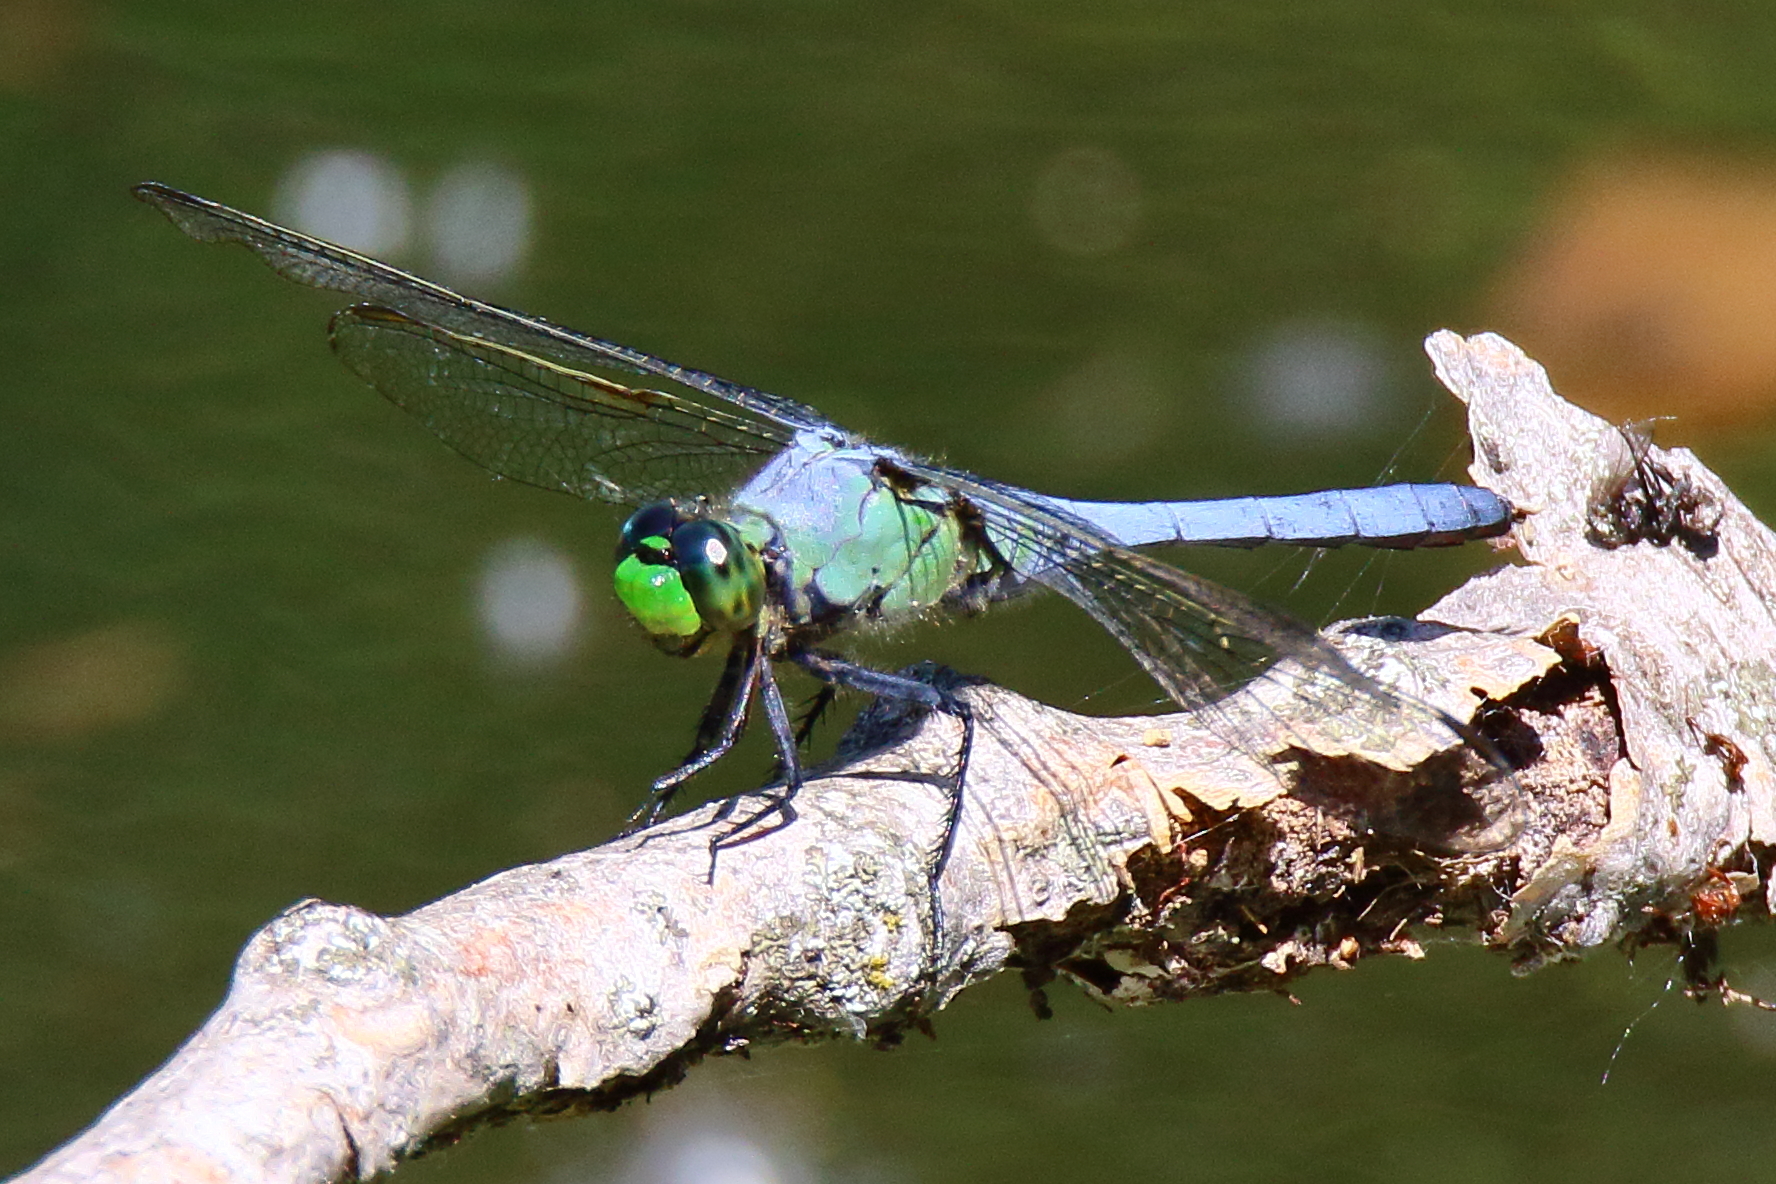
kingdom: Animalia
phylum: Arthropoda
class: Insecta
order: Odonata
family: Libellulidae
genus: Erythemis
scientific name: Erythemis simplicicollis
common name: Eastern pondhawk
